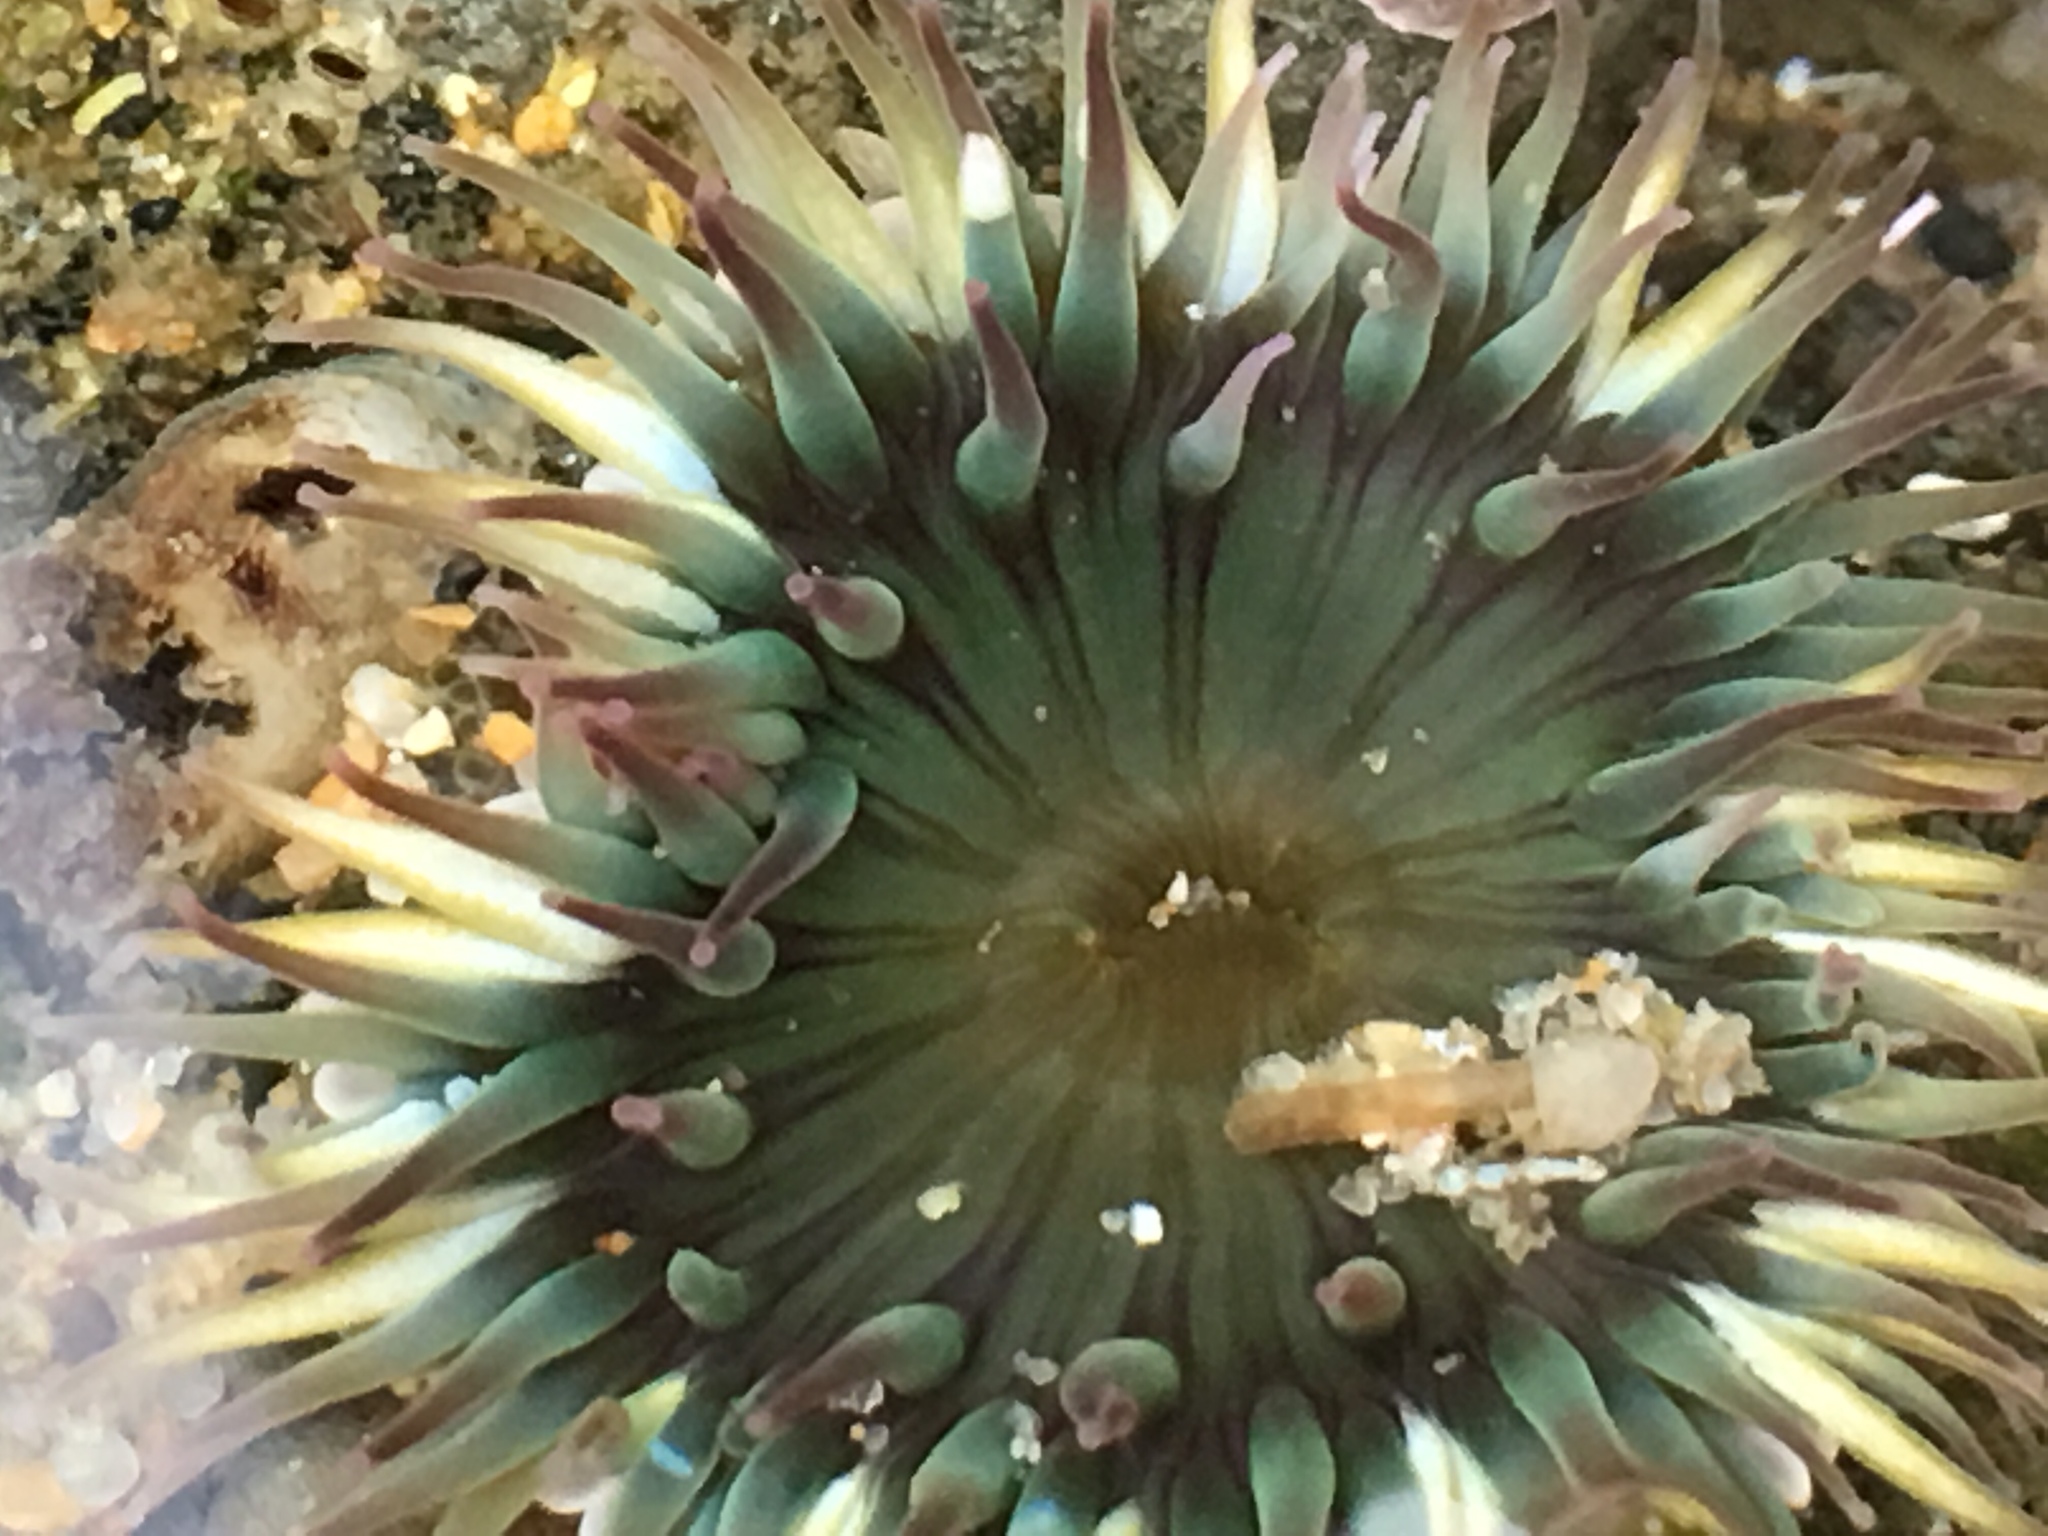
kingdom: Animalia
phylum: Cnidaria
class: Anthozoa
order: Actiniaria
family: Actiniidae
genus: Anthopleura
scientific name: Anthopleura sola
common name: Sun anemone
